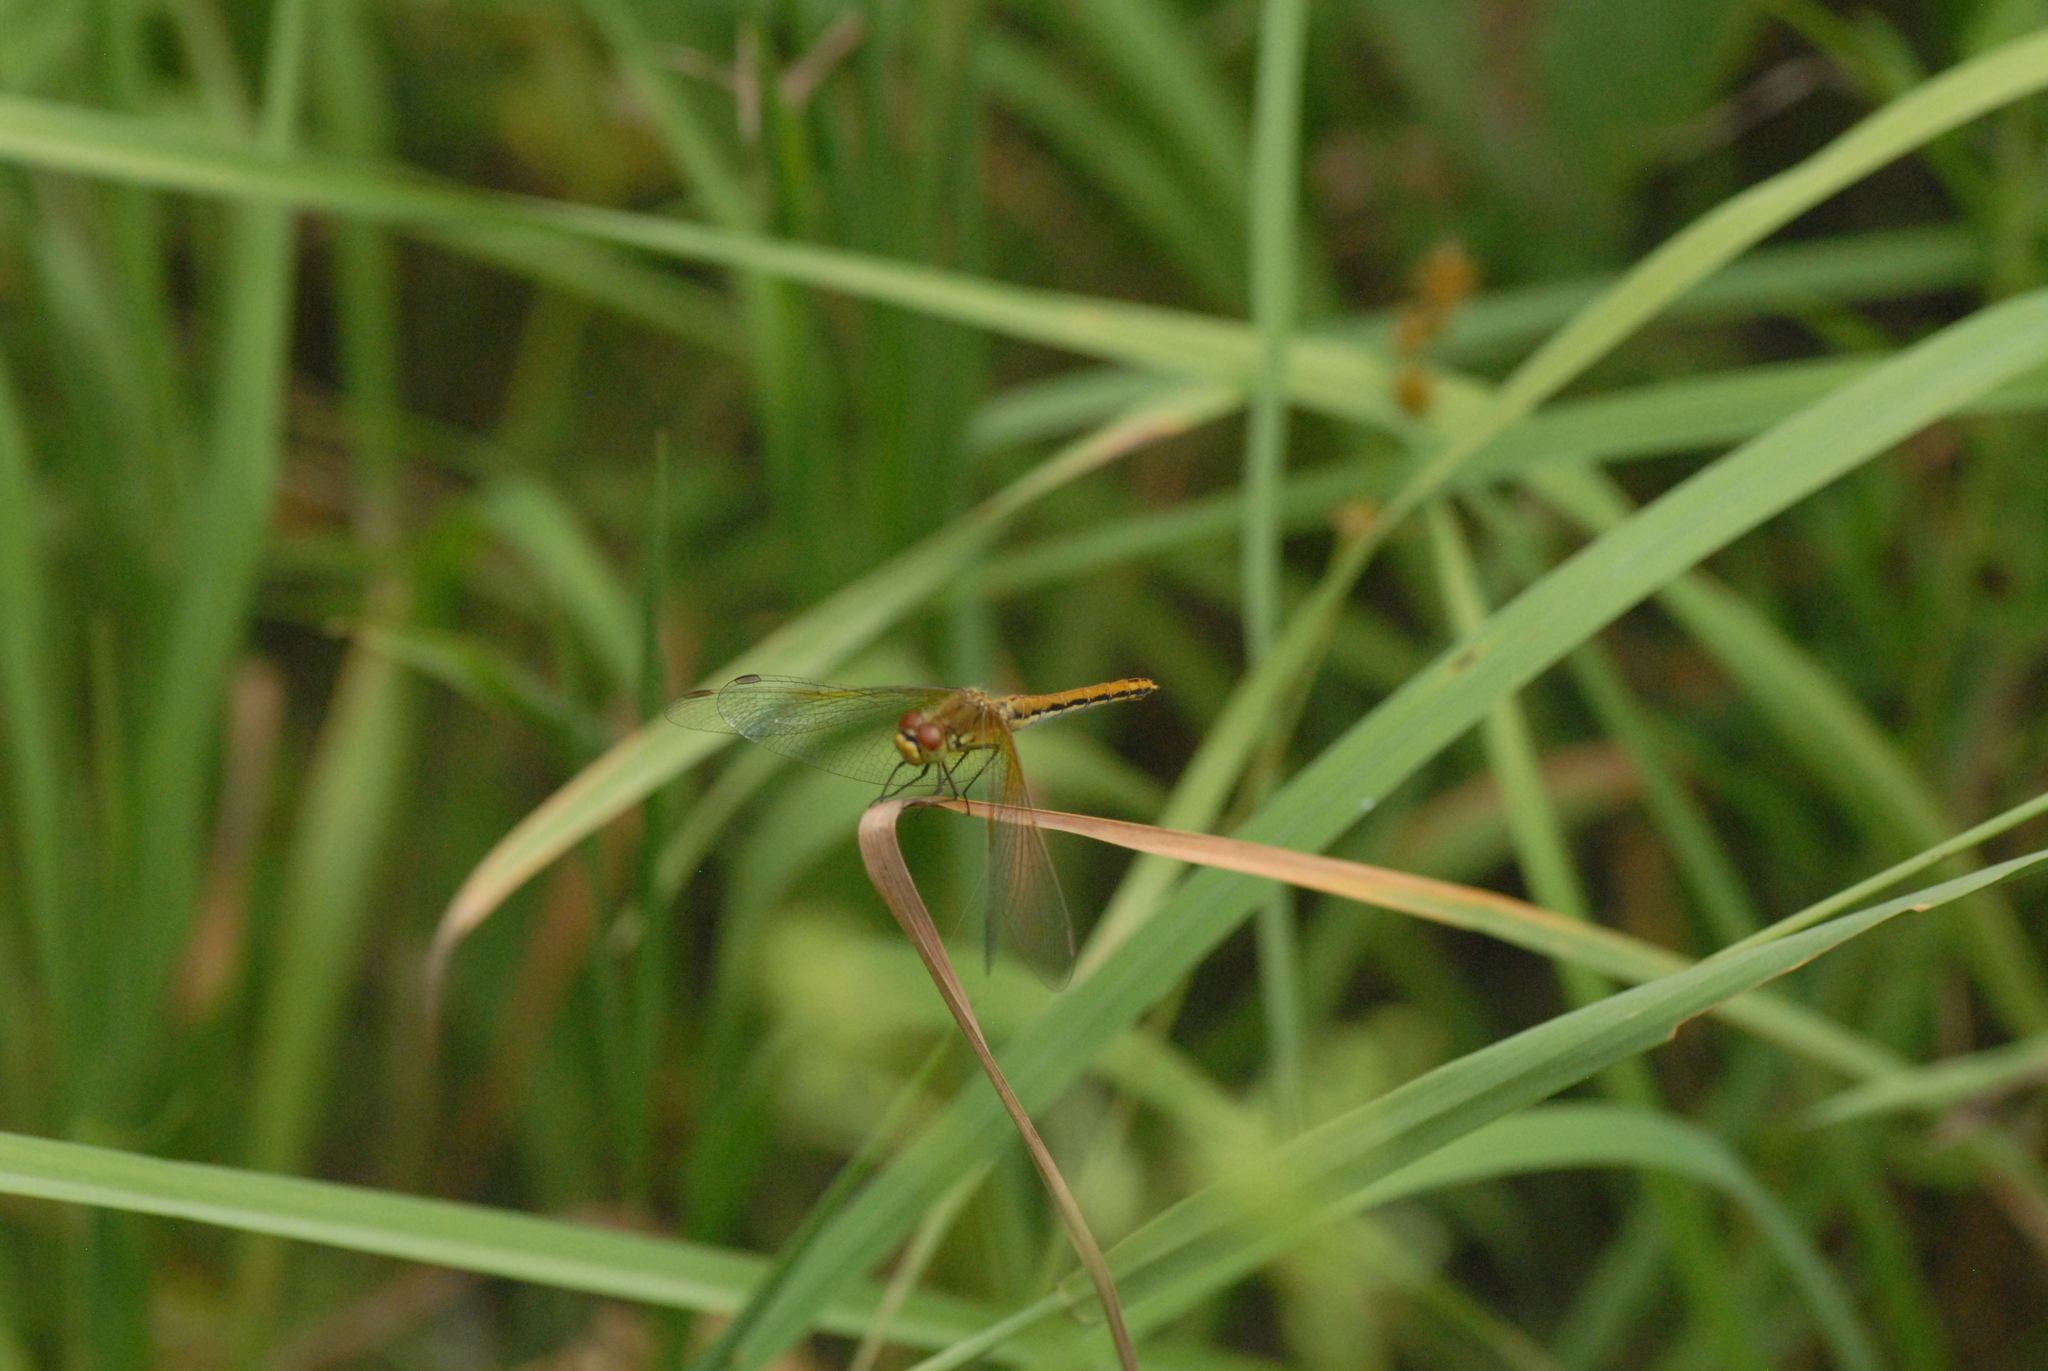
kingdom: Animalia
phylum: Arthropoda
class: Insecta
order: Odonata
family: Libellulidae
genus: Sympetrum
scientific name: Sympetrum flaveolum
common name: Yellow-winged darter
